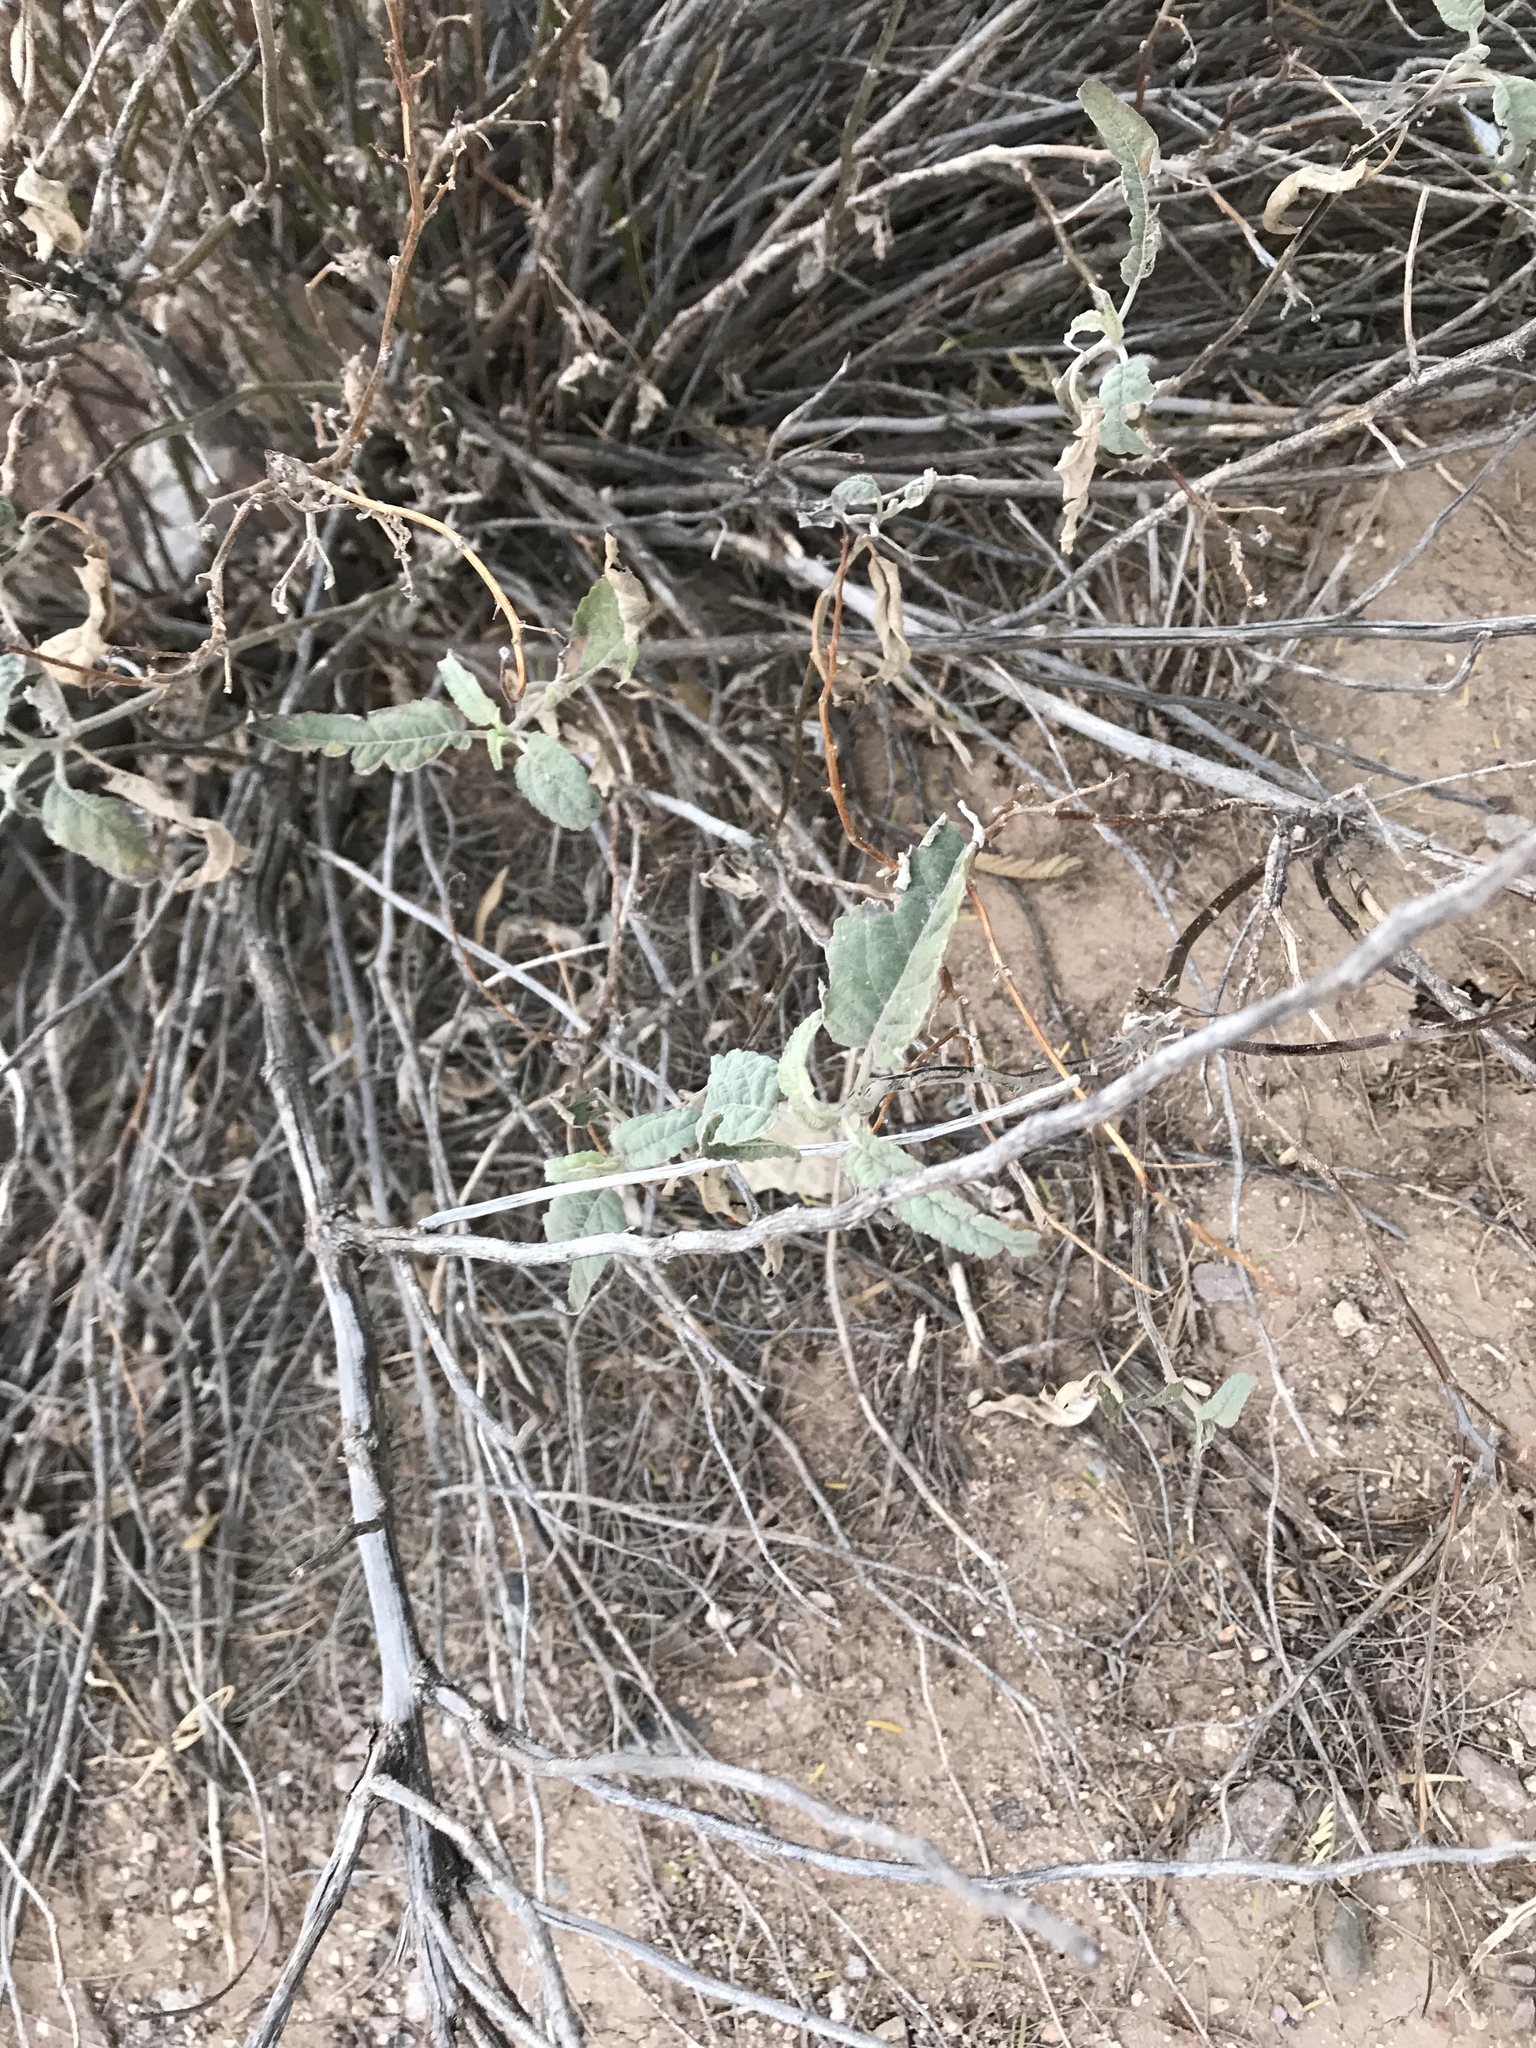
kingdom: Plantae
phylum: Tracheophyta
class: Magnoliopsida
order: Asterales
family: Asteraceae
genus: Ambrosia
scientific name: Ambrosia ambrosioides
